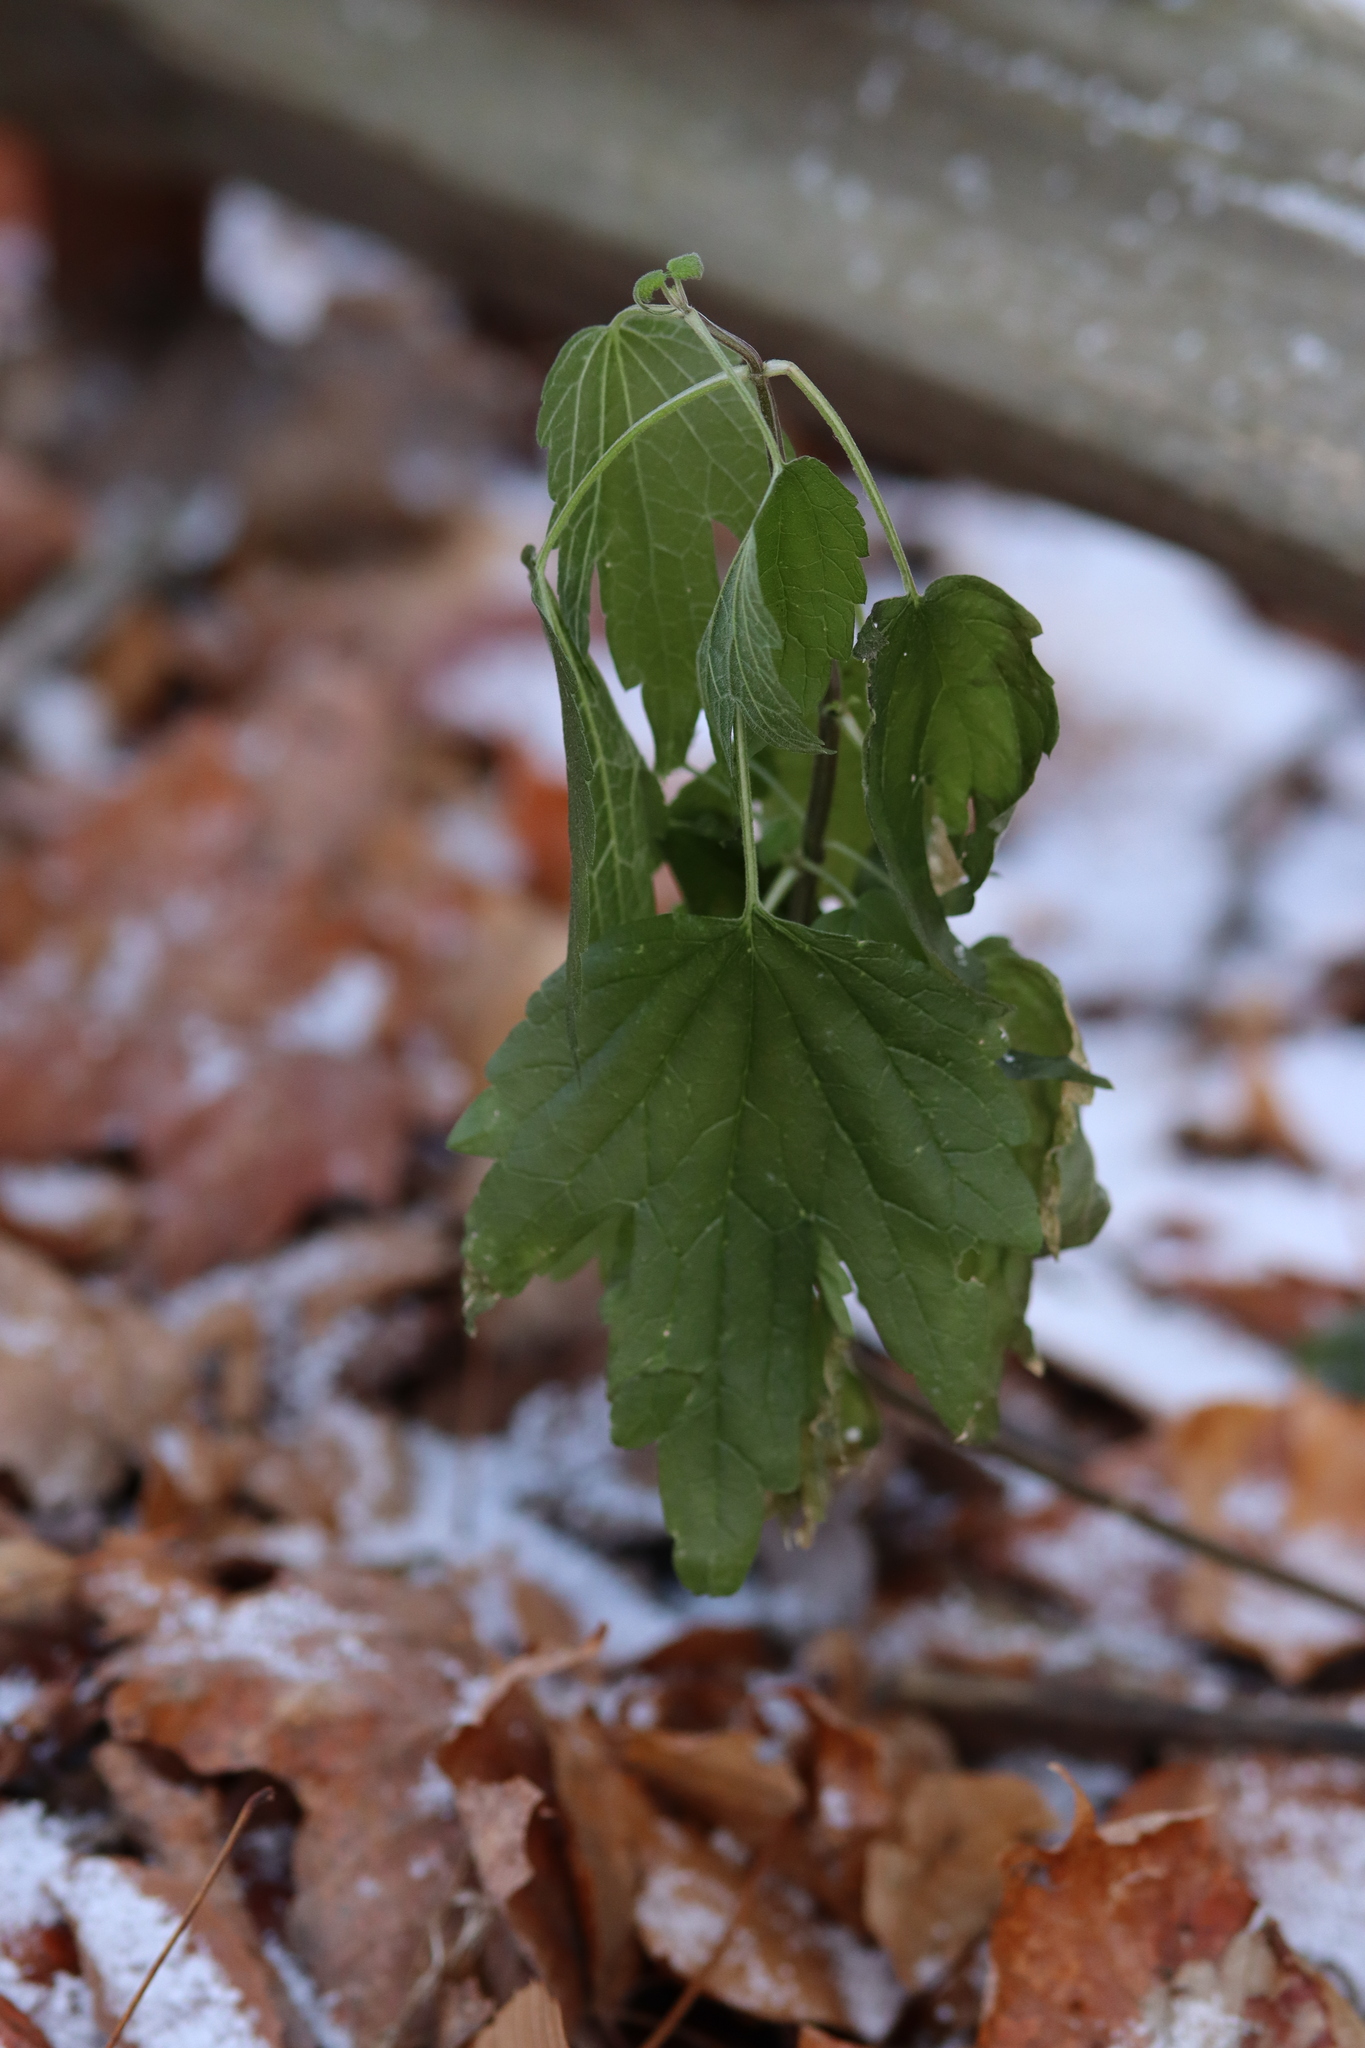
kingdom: Plantae
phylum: Tracheophyta
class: Magnoliopsida
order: Lamiales
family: Lamiaceae
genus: Leonurus
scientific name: Leonurus cardiaca
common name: Motherwort
